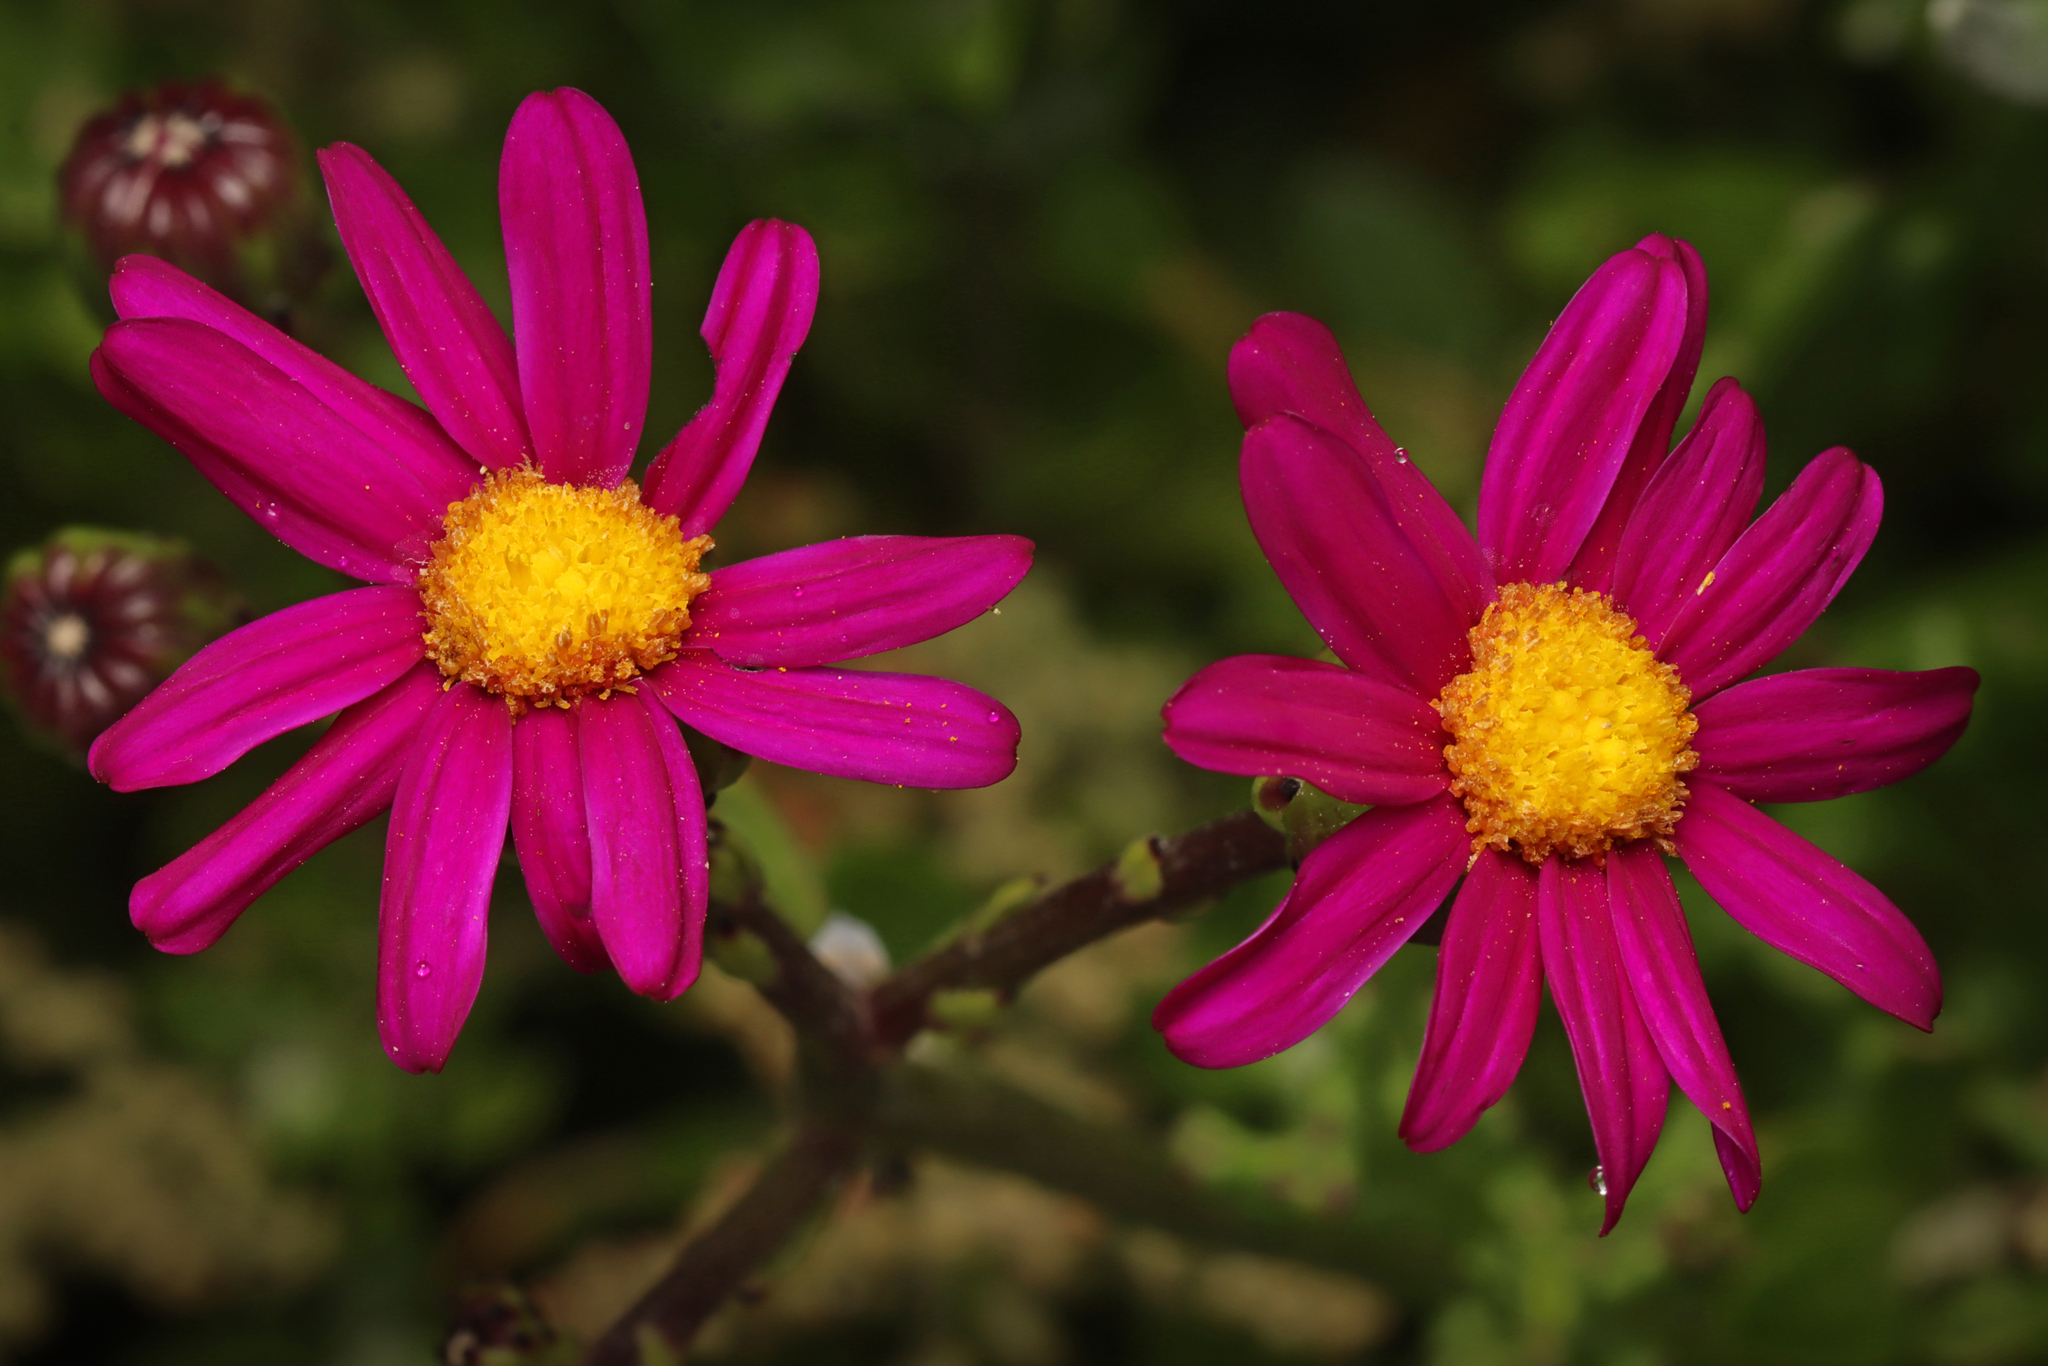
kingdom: Plantae
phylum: Tracheophyta
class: Magnoliopsida
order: Asterales
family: Asteraceae
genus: Senecio
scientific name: Senecio elegans
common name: Purple groundsel
